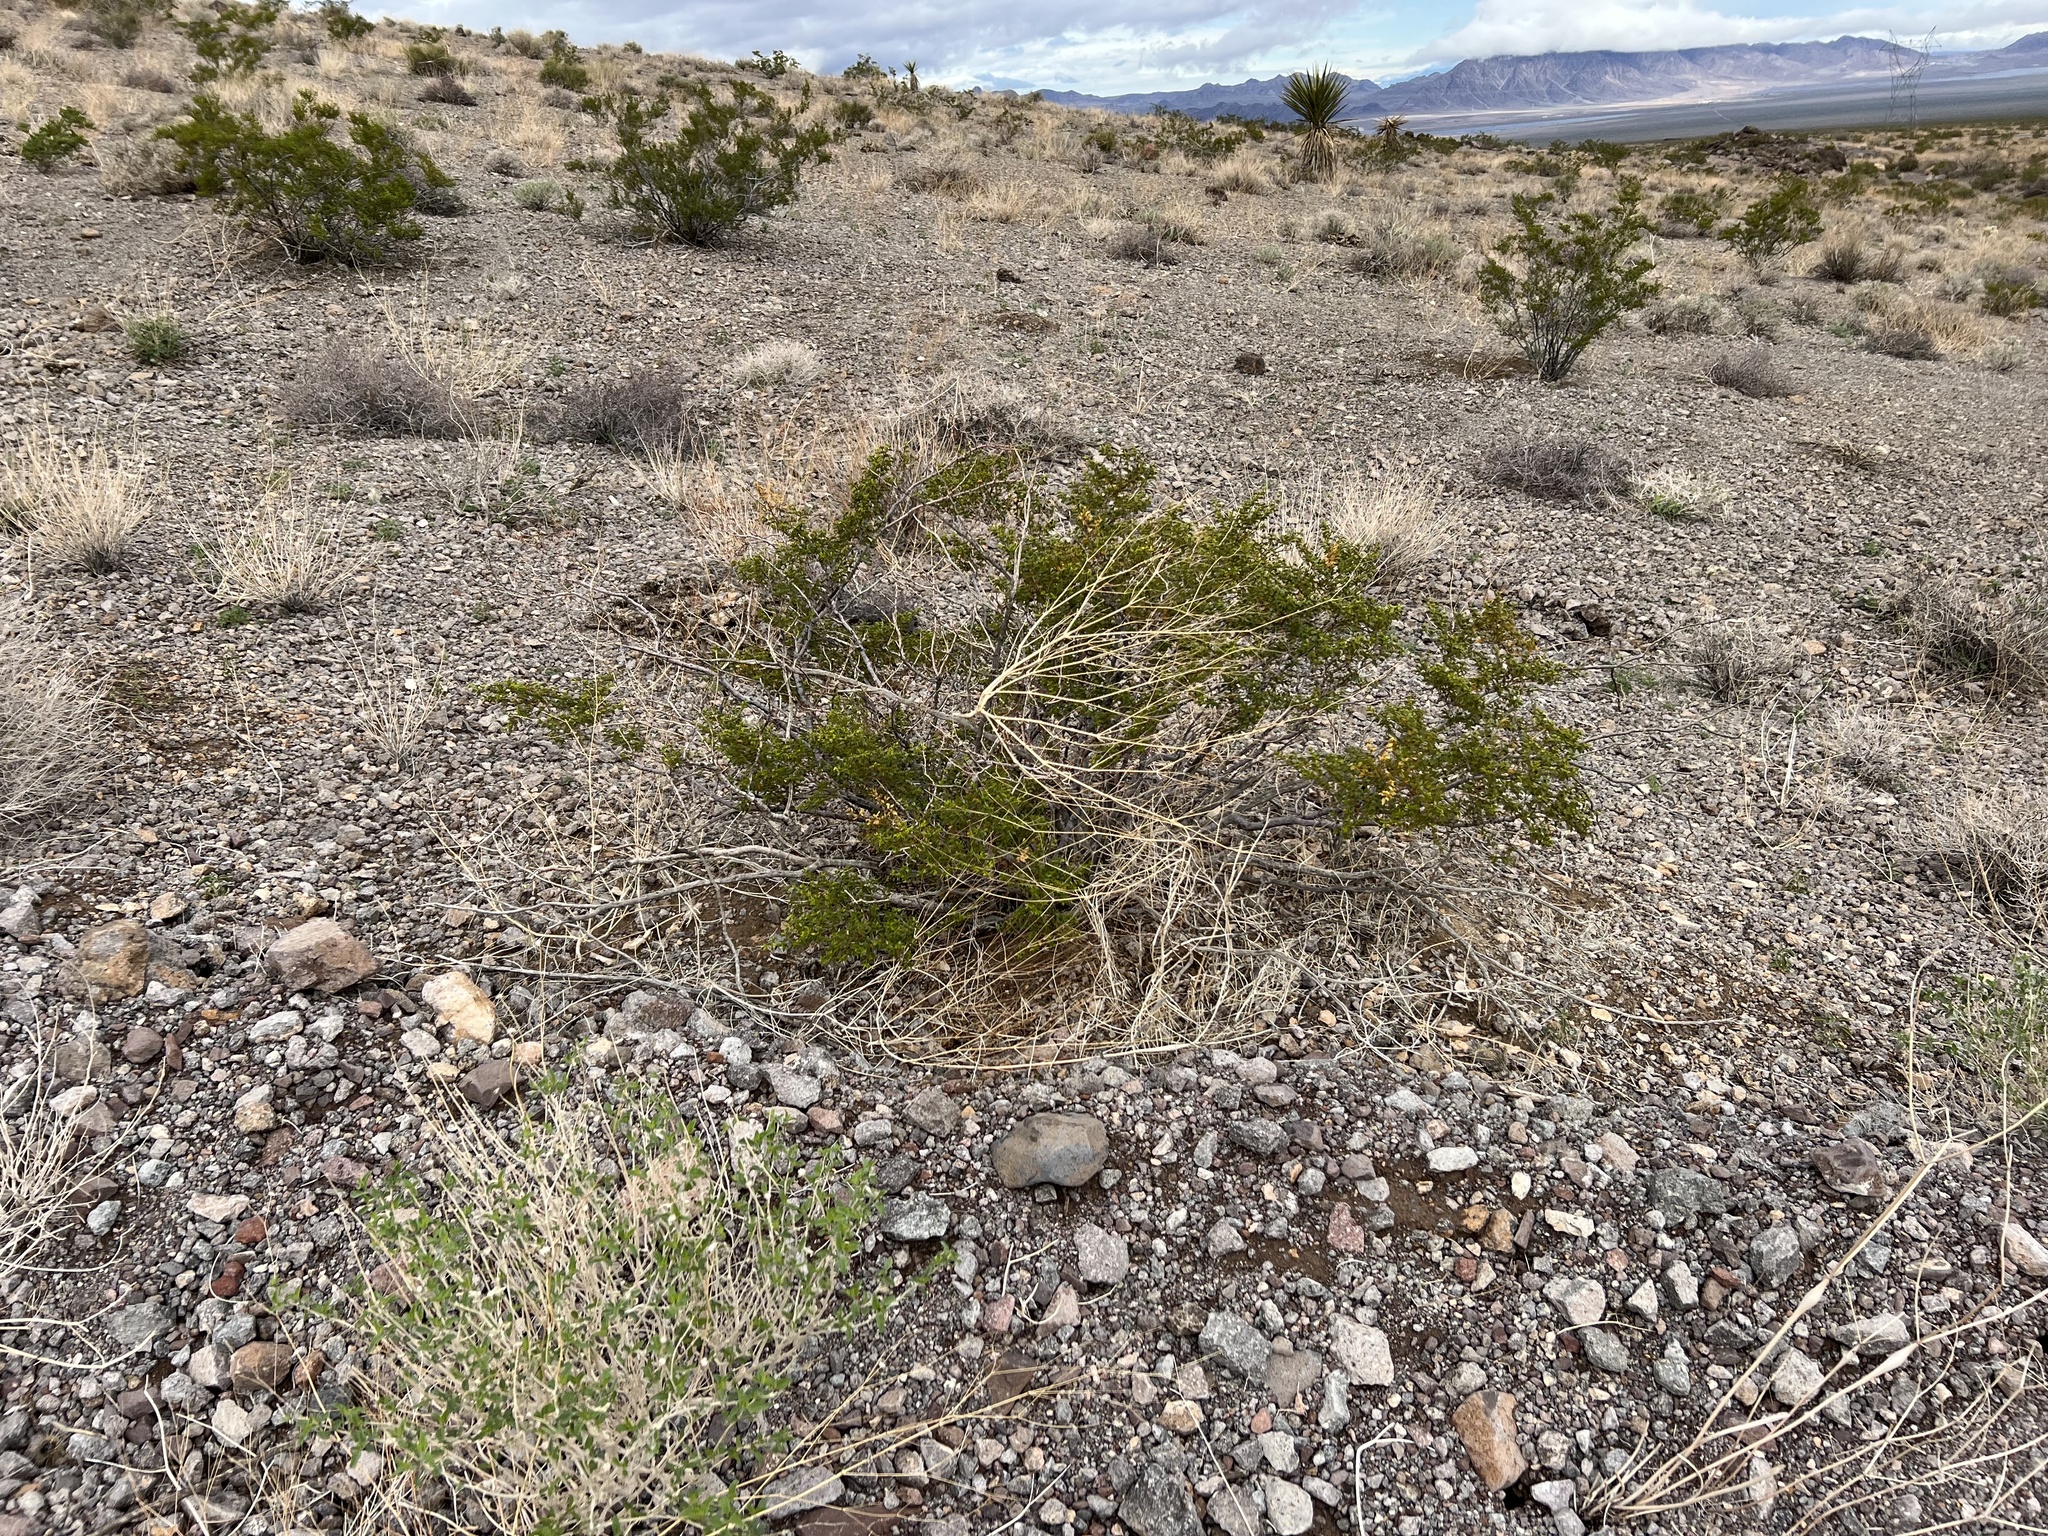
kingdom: Plantae
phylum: Tracheophyta
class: Magnoliopsida
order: Zygophyllales
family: Zygophyllaceae
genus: Larrea
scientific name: Larrea tridentata
